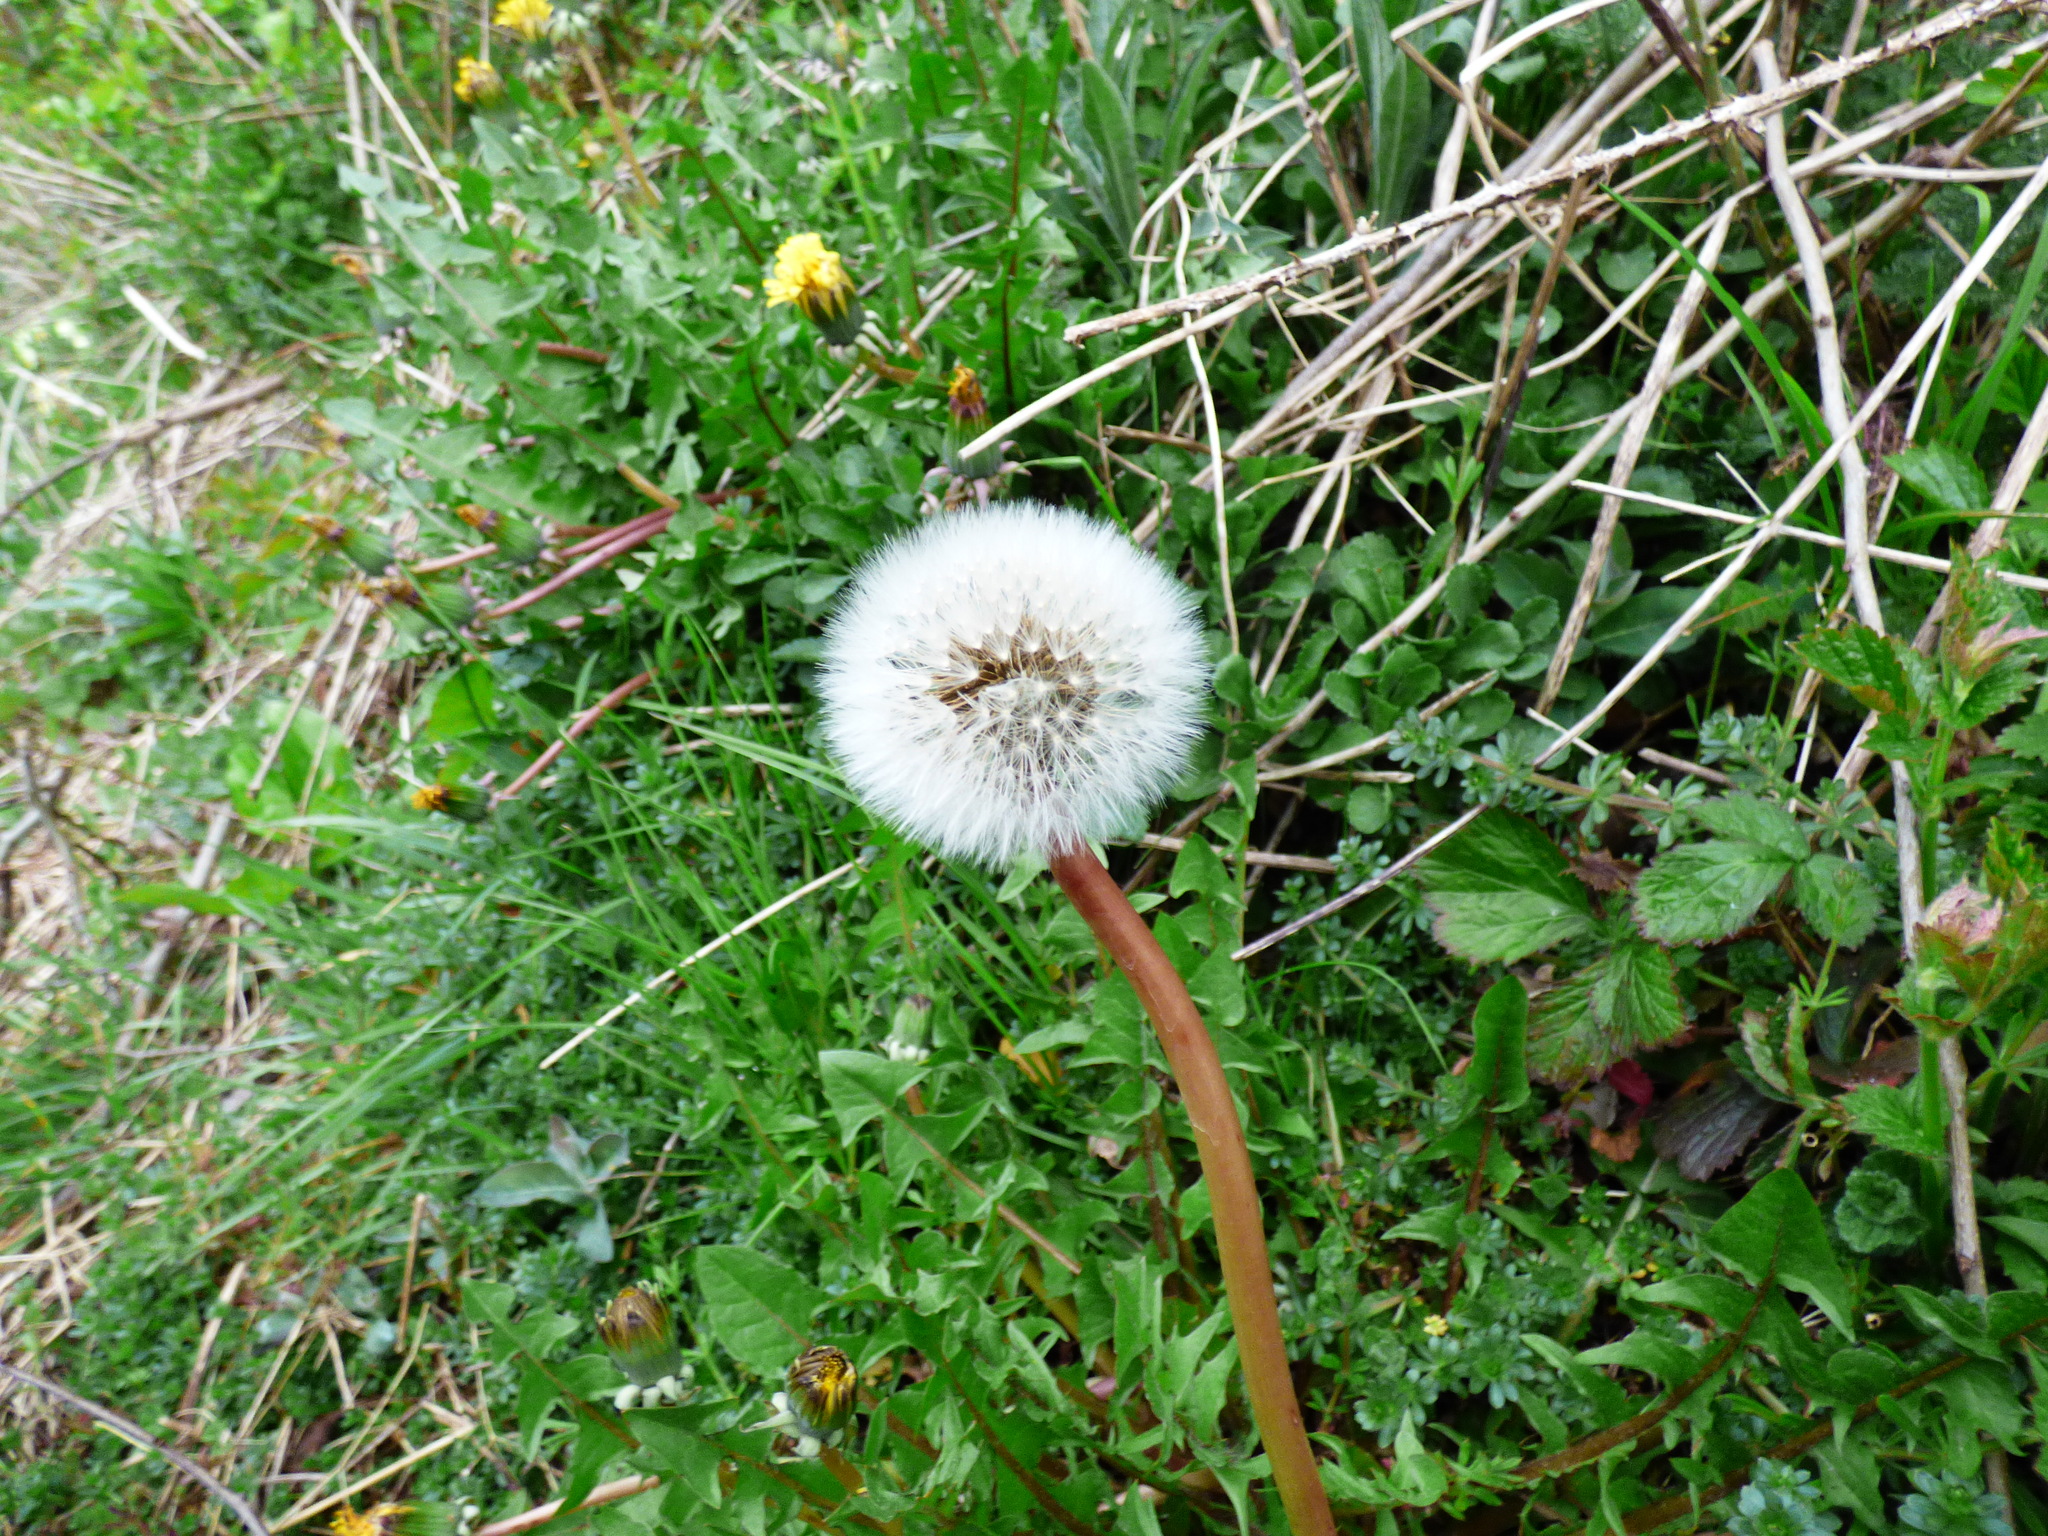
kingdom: Plantae
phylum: Tracheophyta
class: Magnoliopsida
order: Asterales
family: Asteraceae
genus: Taraxacum
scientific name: Taraxacum officinale
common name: Common dandelion
